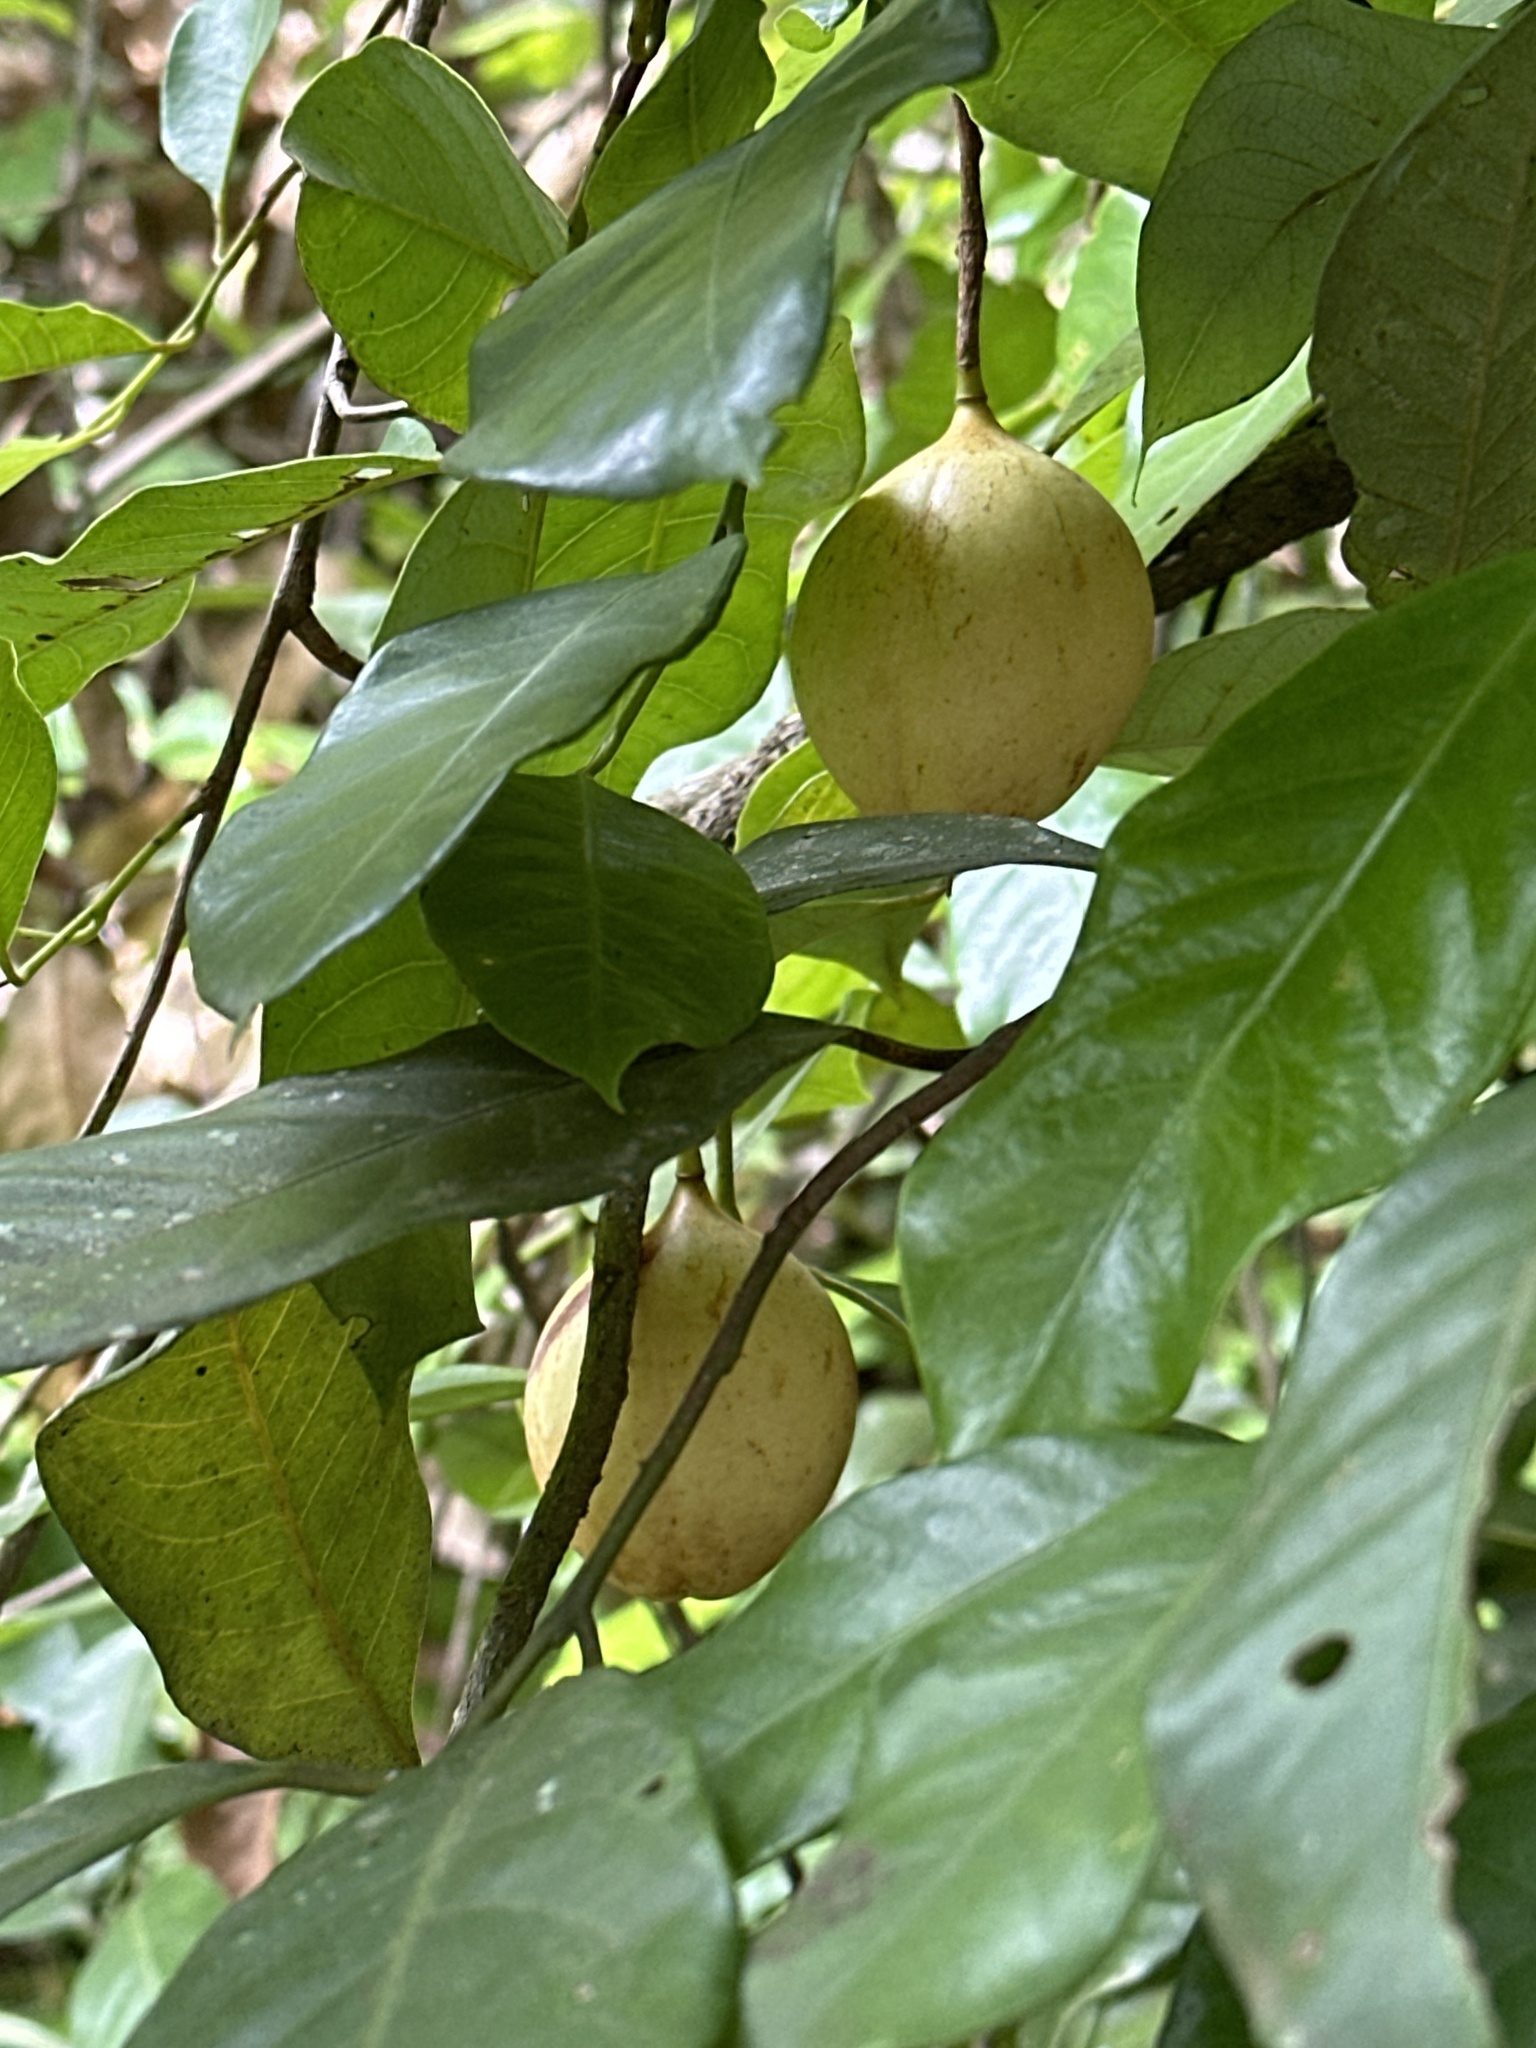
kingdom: Plantae
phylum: Tracheophyta
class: Magnoliopsida
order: Magnoliales
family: Myristicaceae
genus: Myristica
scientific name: Myristica fragrans
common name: Nutmeg
